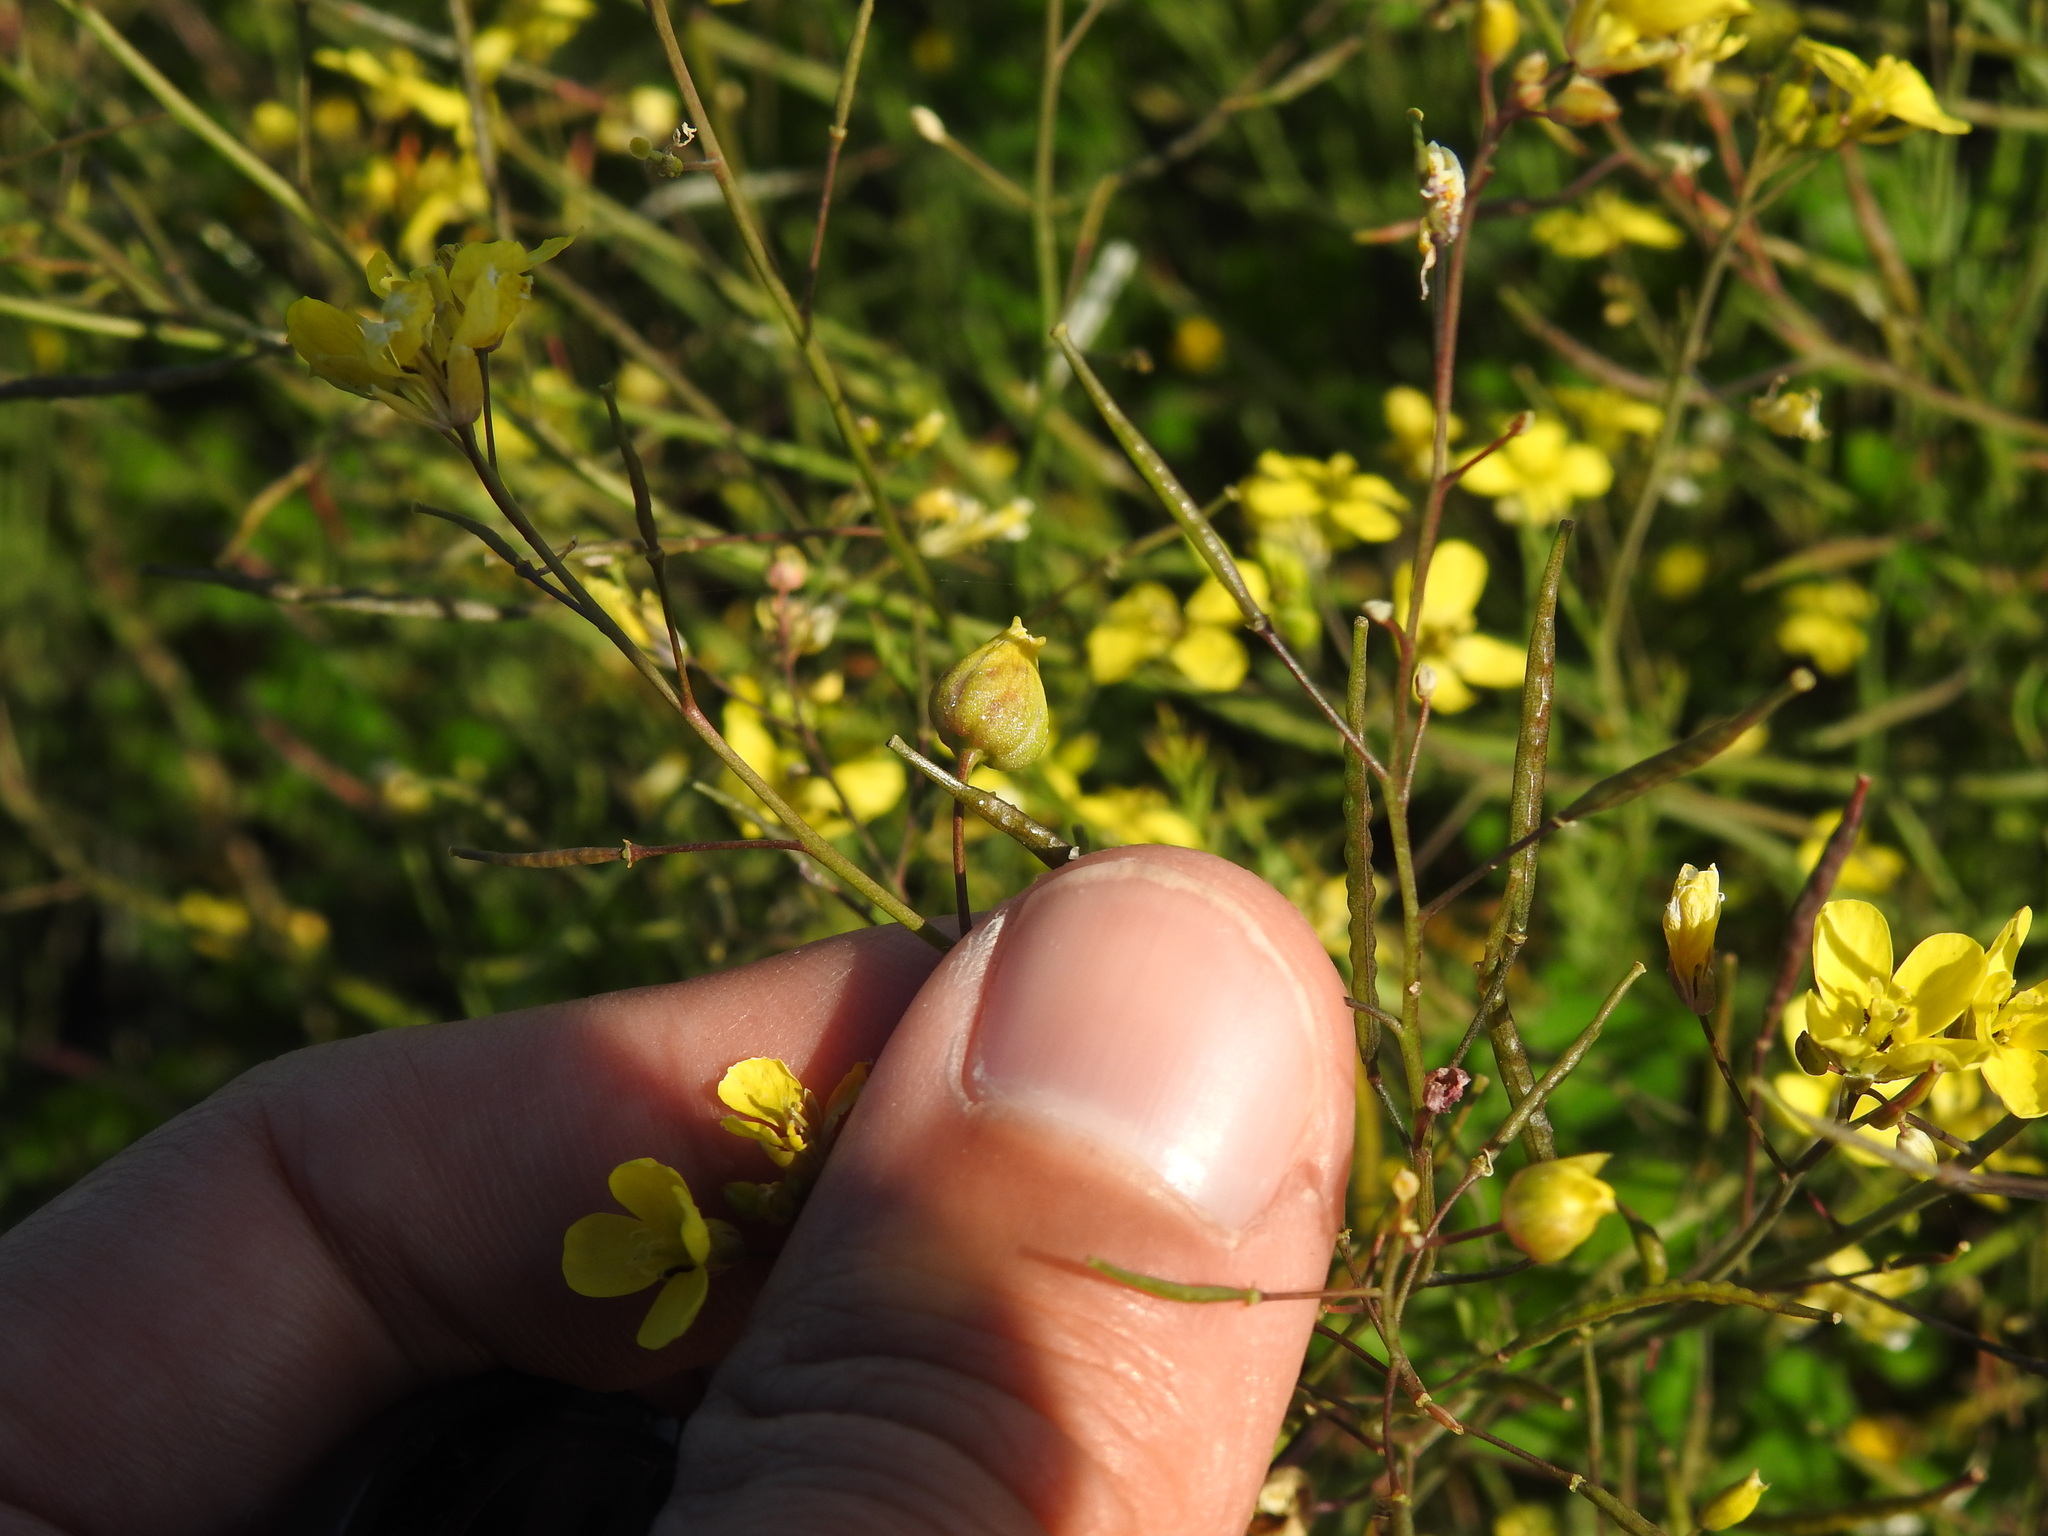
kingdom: Animalia
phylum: Arthropoda
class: Insecta
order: Diptera
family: Cecidomyiidae
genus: Paragephyraulus
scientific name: Paragephyraulus diplotaxis
